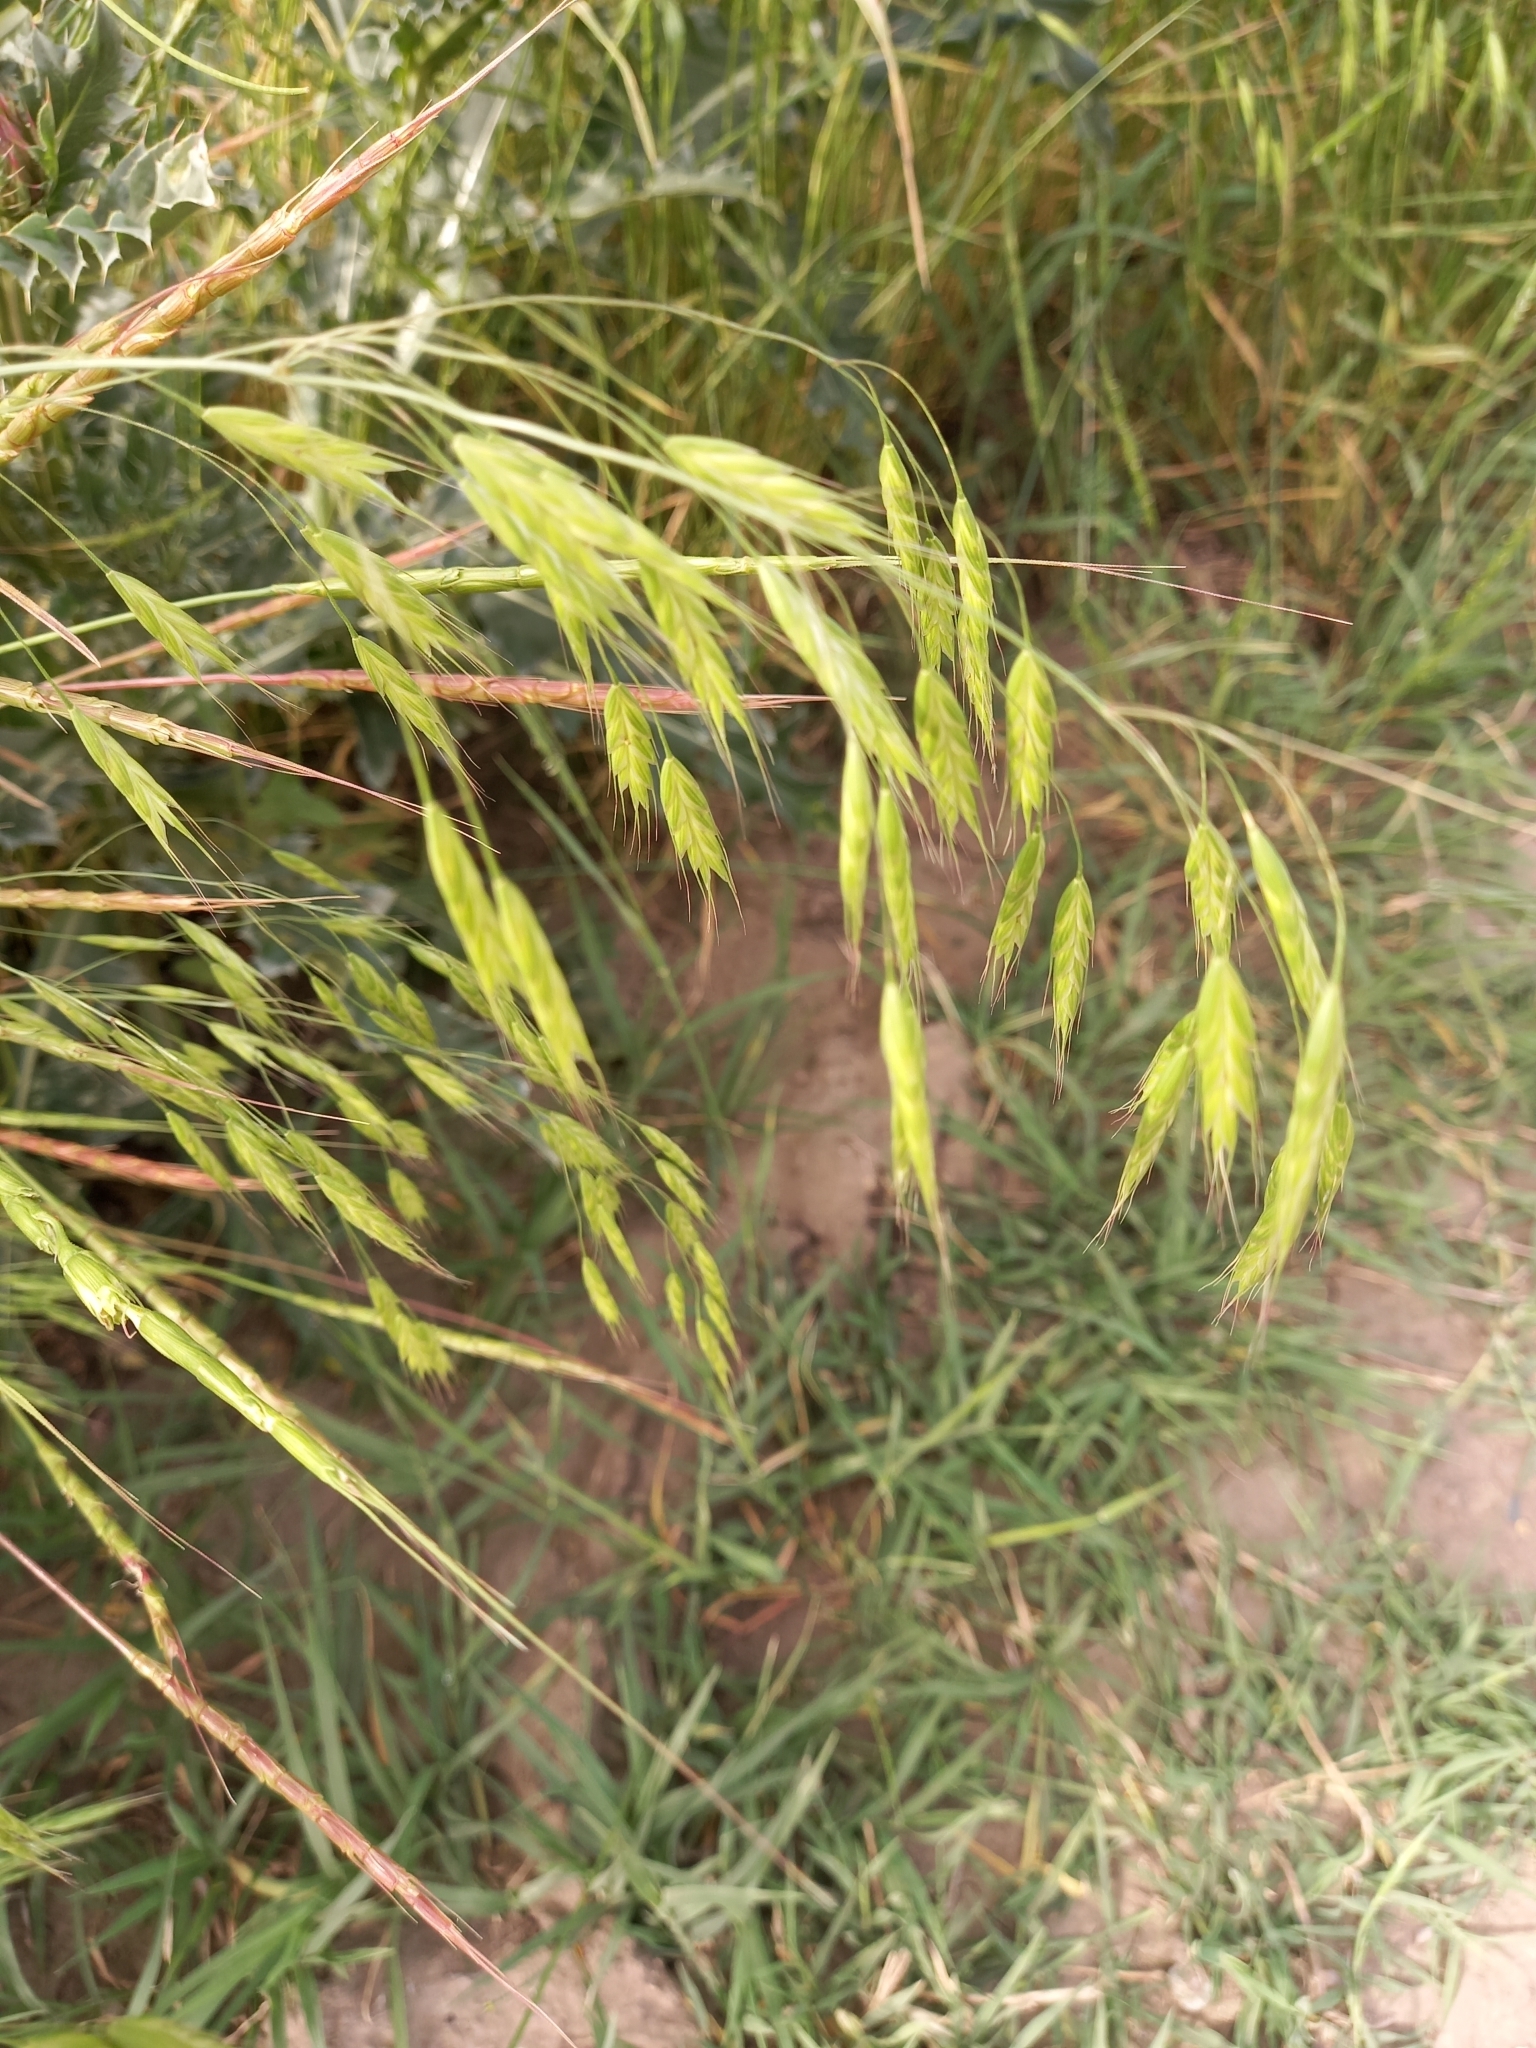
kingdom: Plantae
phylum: Tracheophyta
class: Liliopsida
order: Poales
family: Poaceae
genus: Bromus
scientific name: Bromus japonicus
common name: Japanese brome
